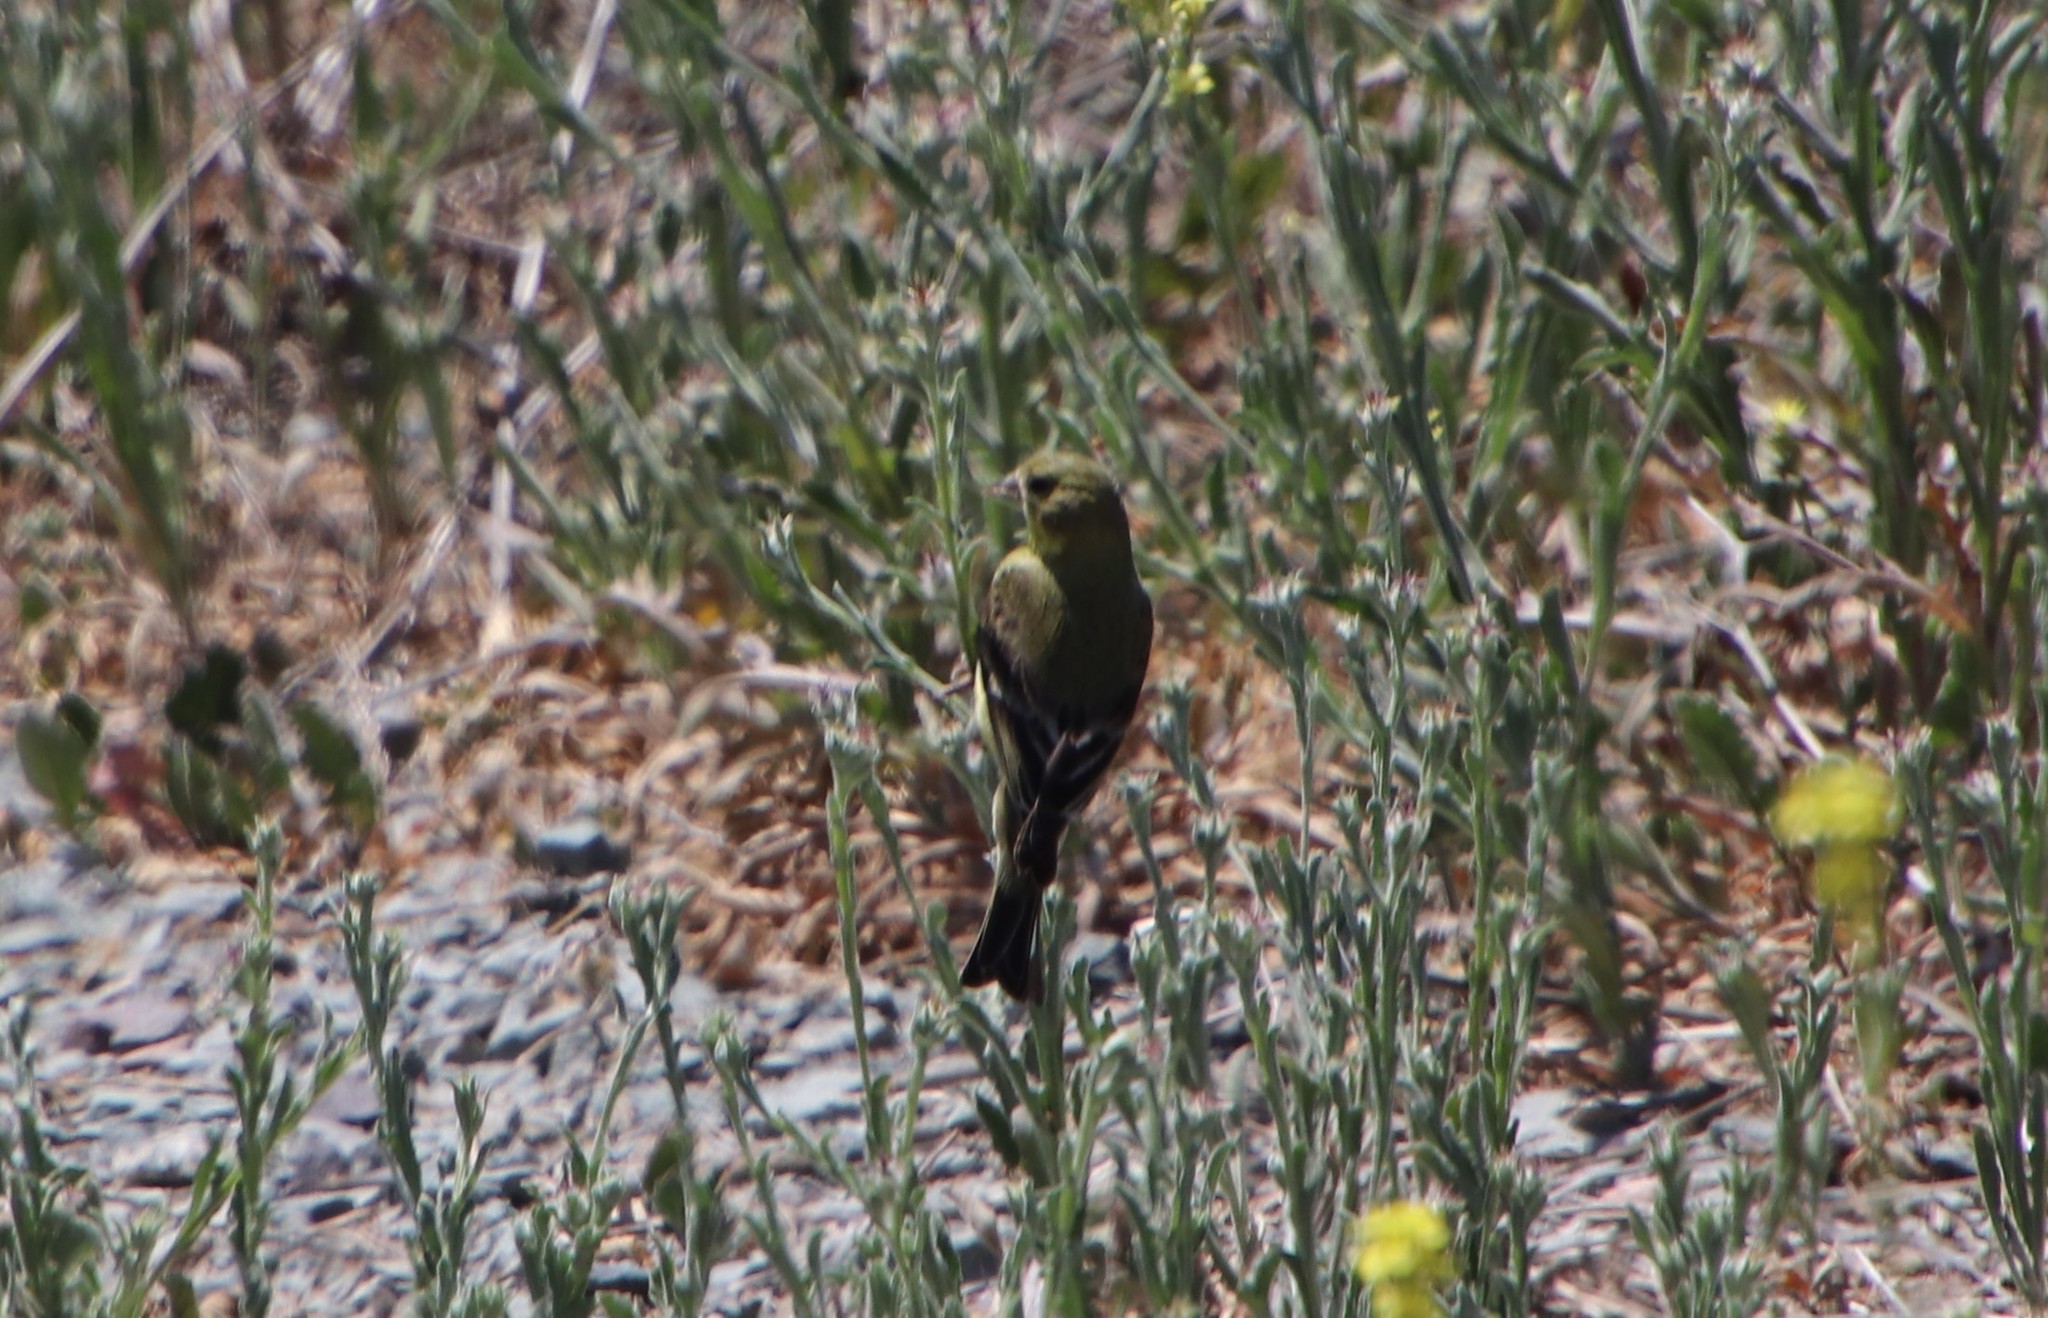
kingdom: Animalia
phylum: Chordata
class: Aves
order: Passeriformes
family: Fringillidae
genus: Spinus
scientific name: Spinus psaltria
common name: Lesser goldfinch
